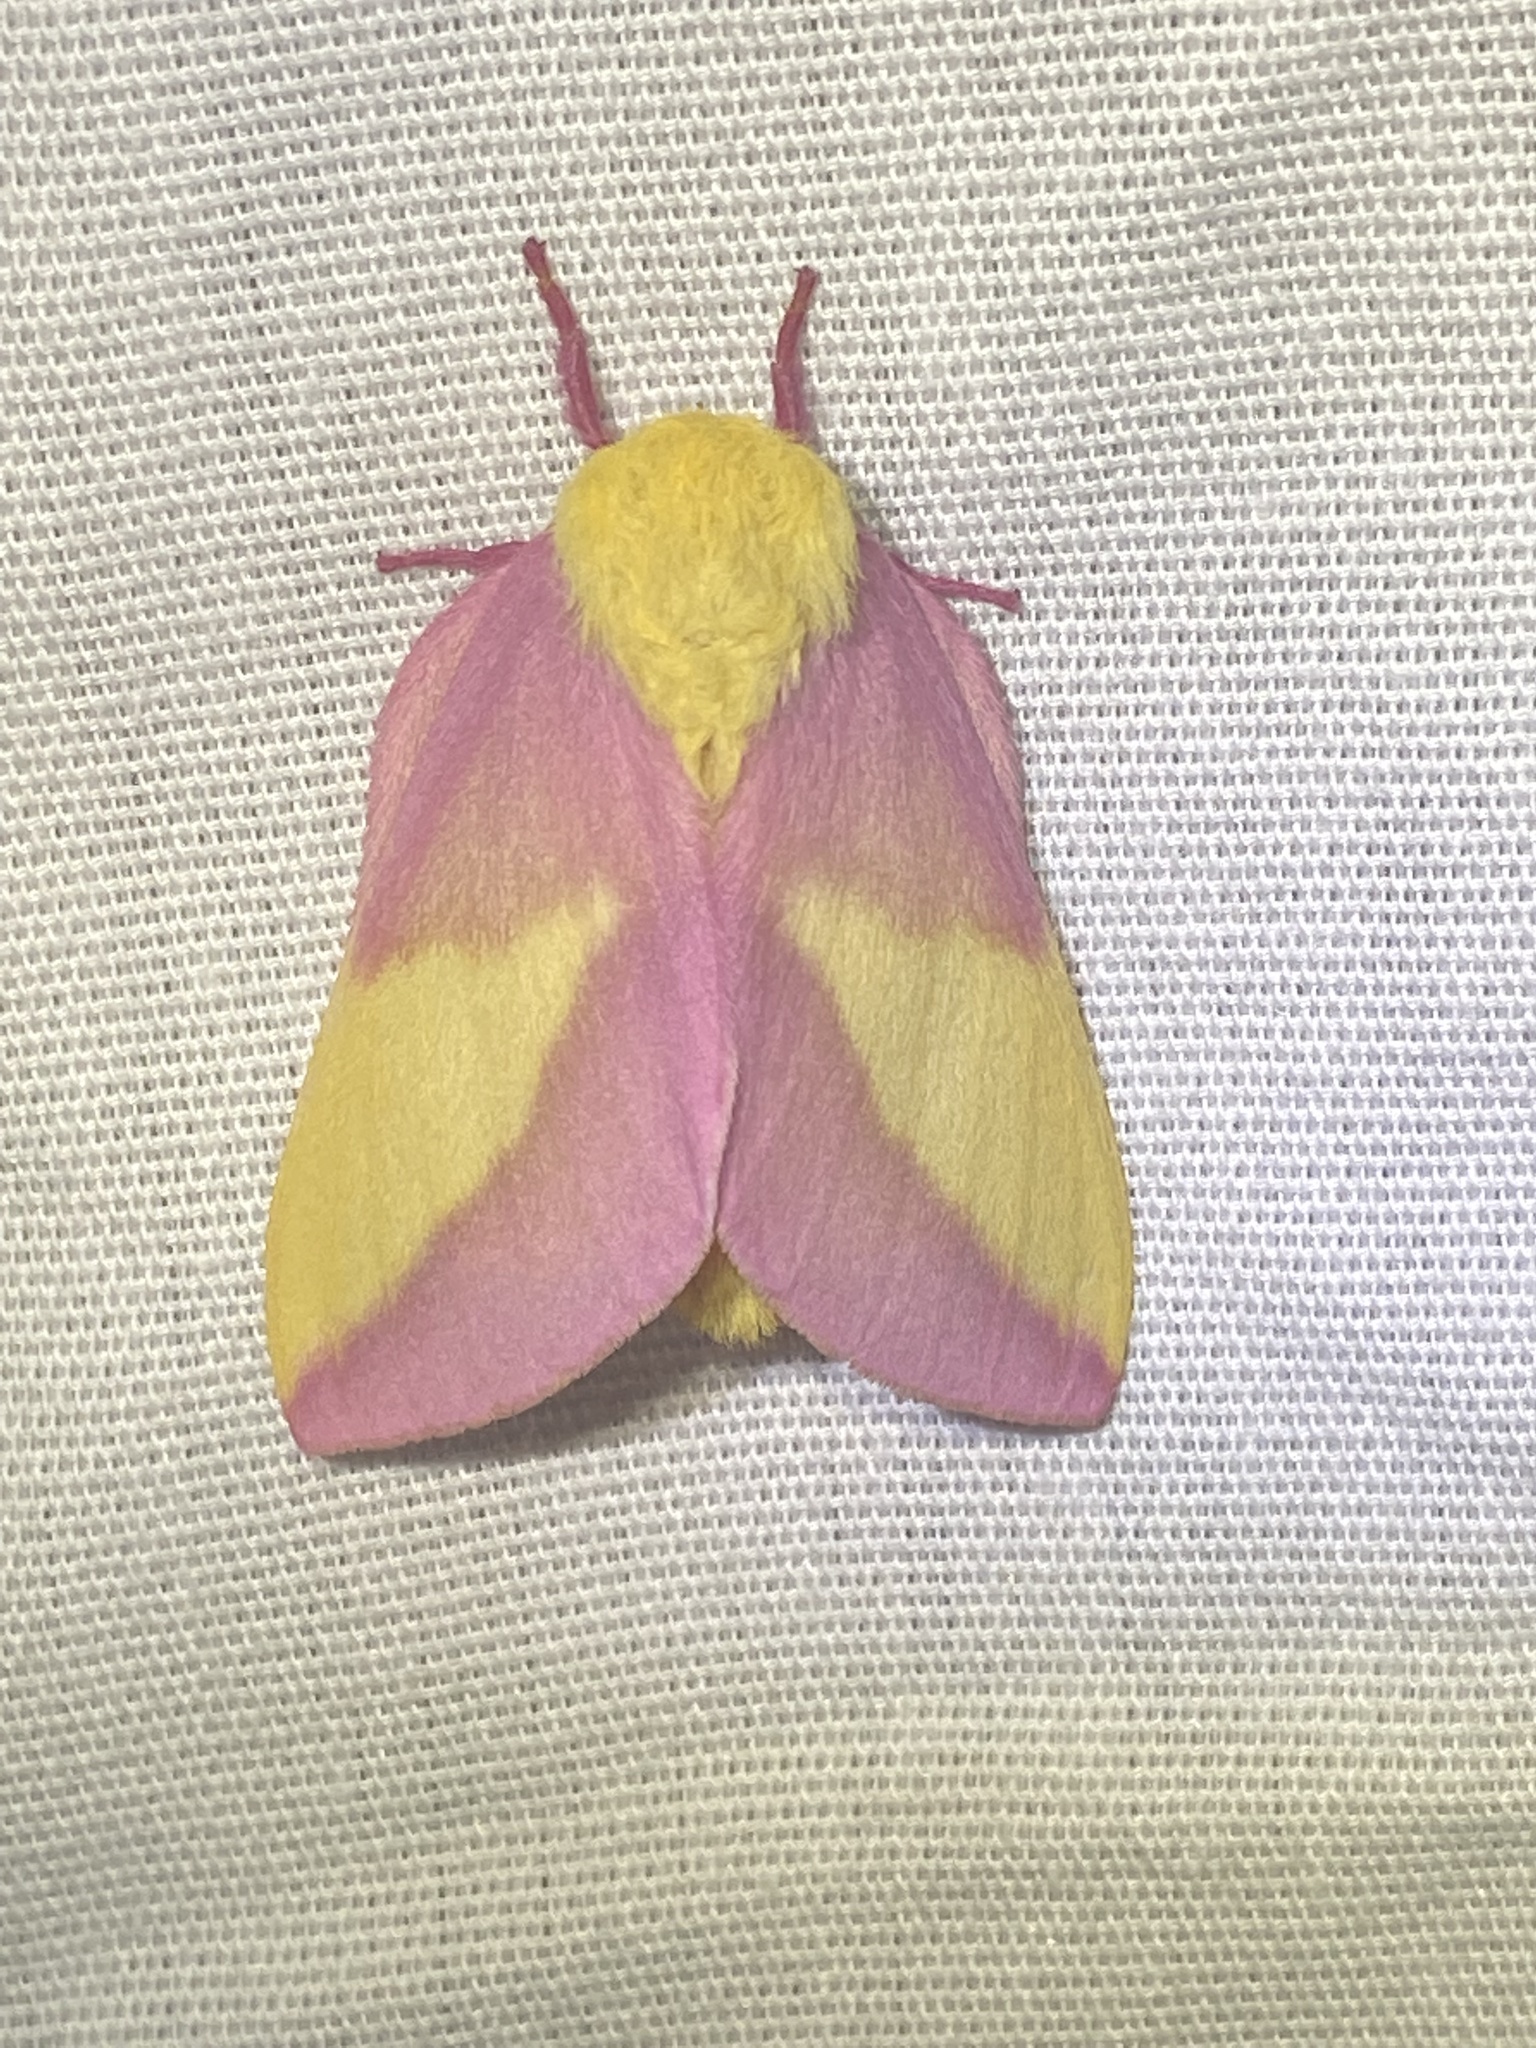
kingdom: Animalia
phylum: Arthropoda
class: Insecta
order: Lepidoptera
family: Saturniidae
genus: Dryocampa
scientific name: Dryocampa rubicunda
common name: Rosy maple moth
